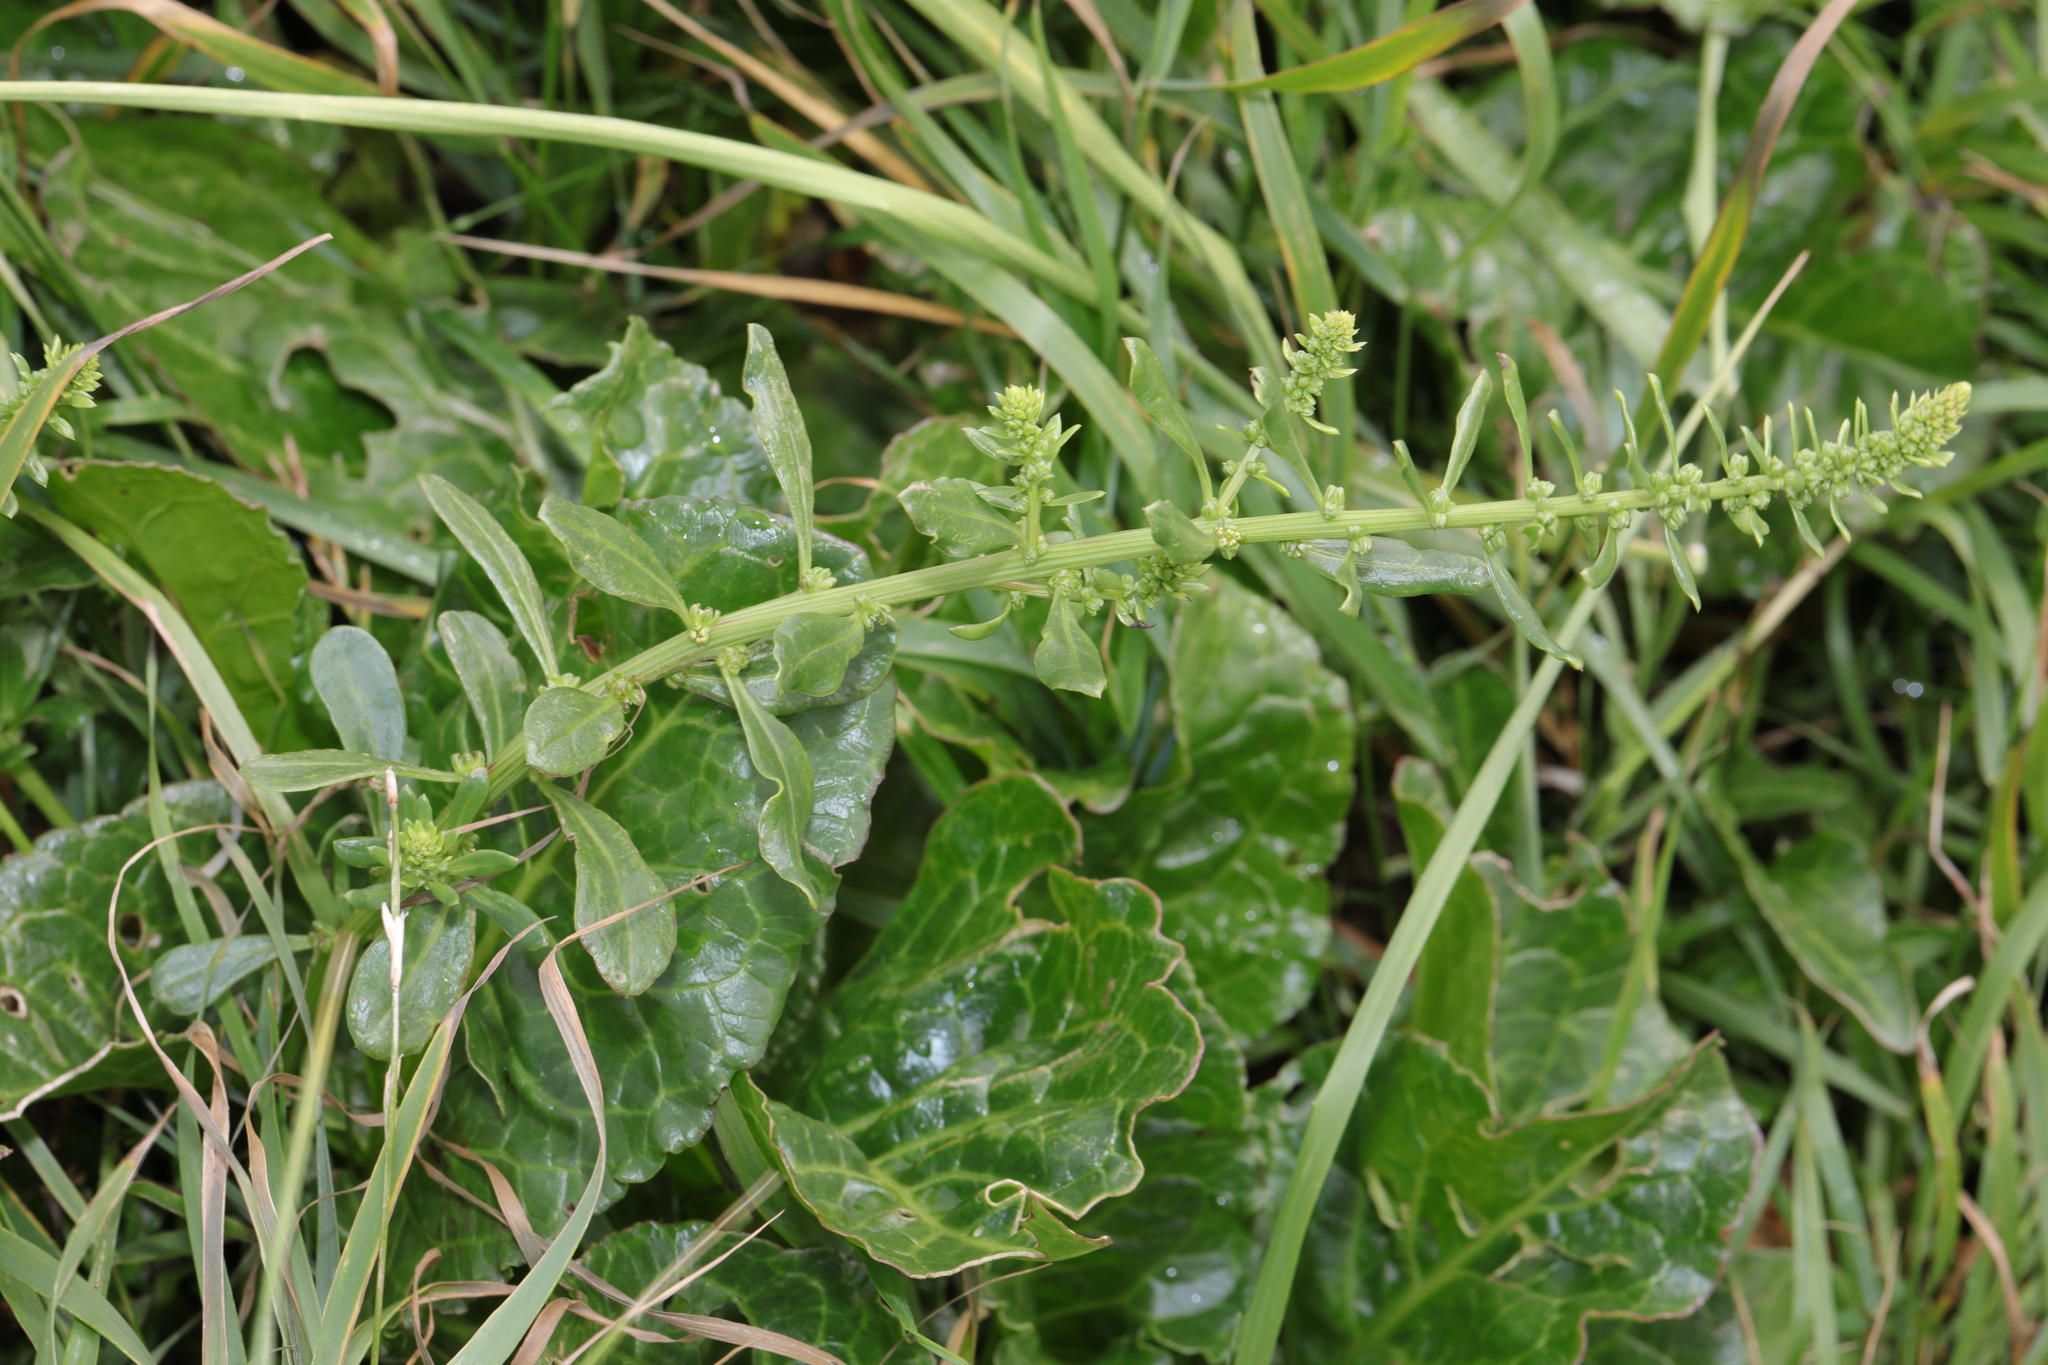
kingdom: Plantae
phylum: Tracheophyta
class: Magnoliopsida
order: Caryophyllales
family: Amaranthaceae
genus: Beta
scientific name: Beta vulgaris
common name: Beet
